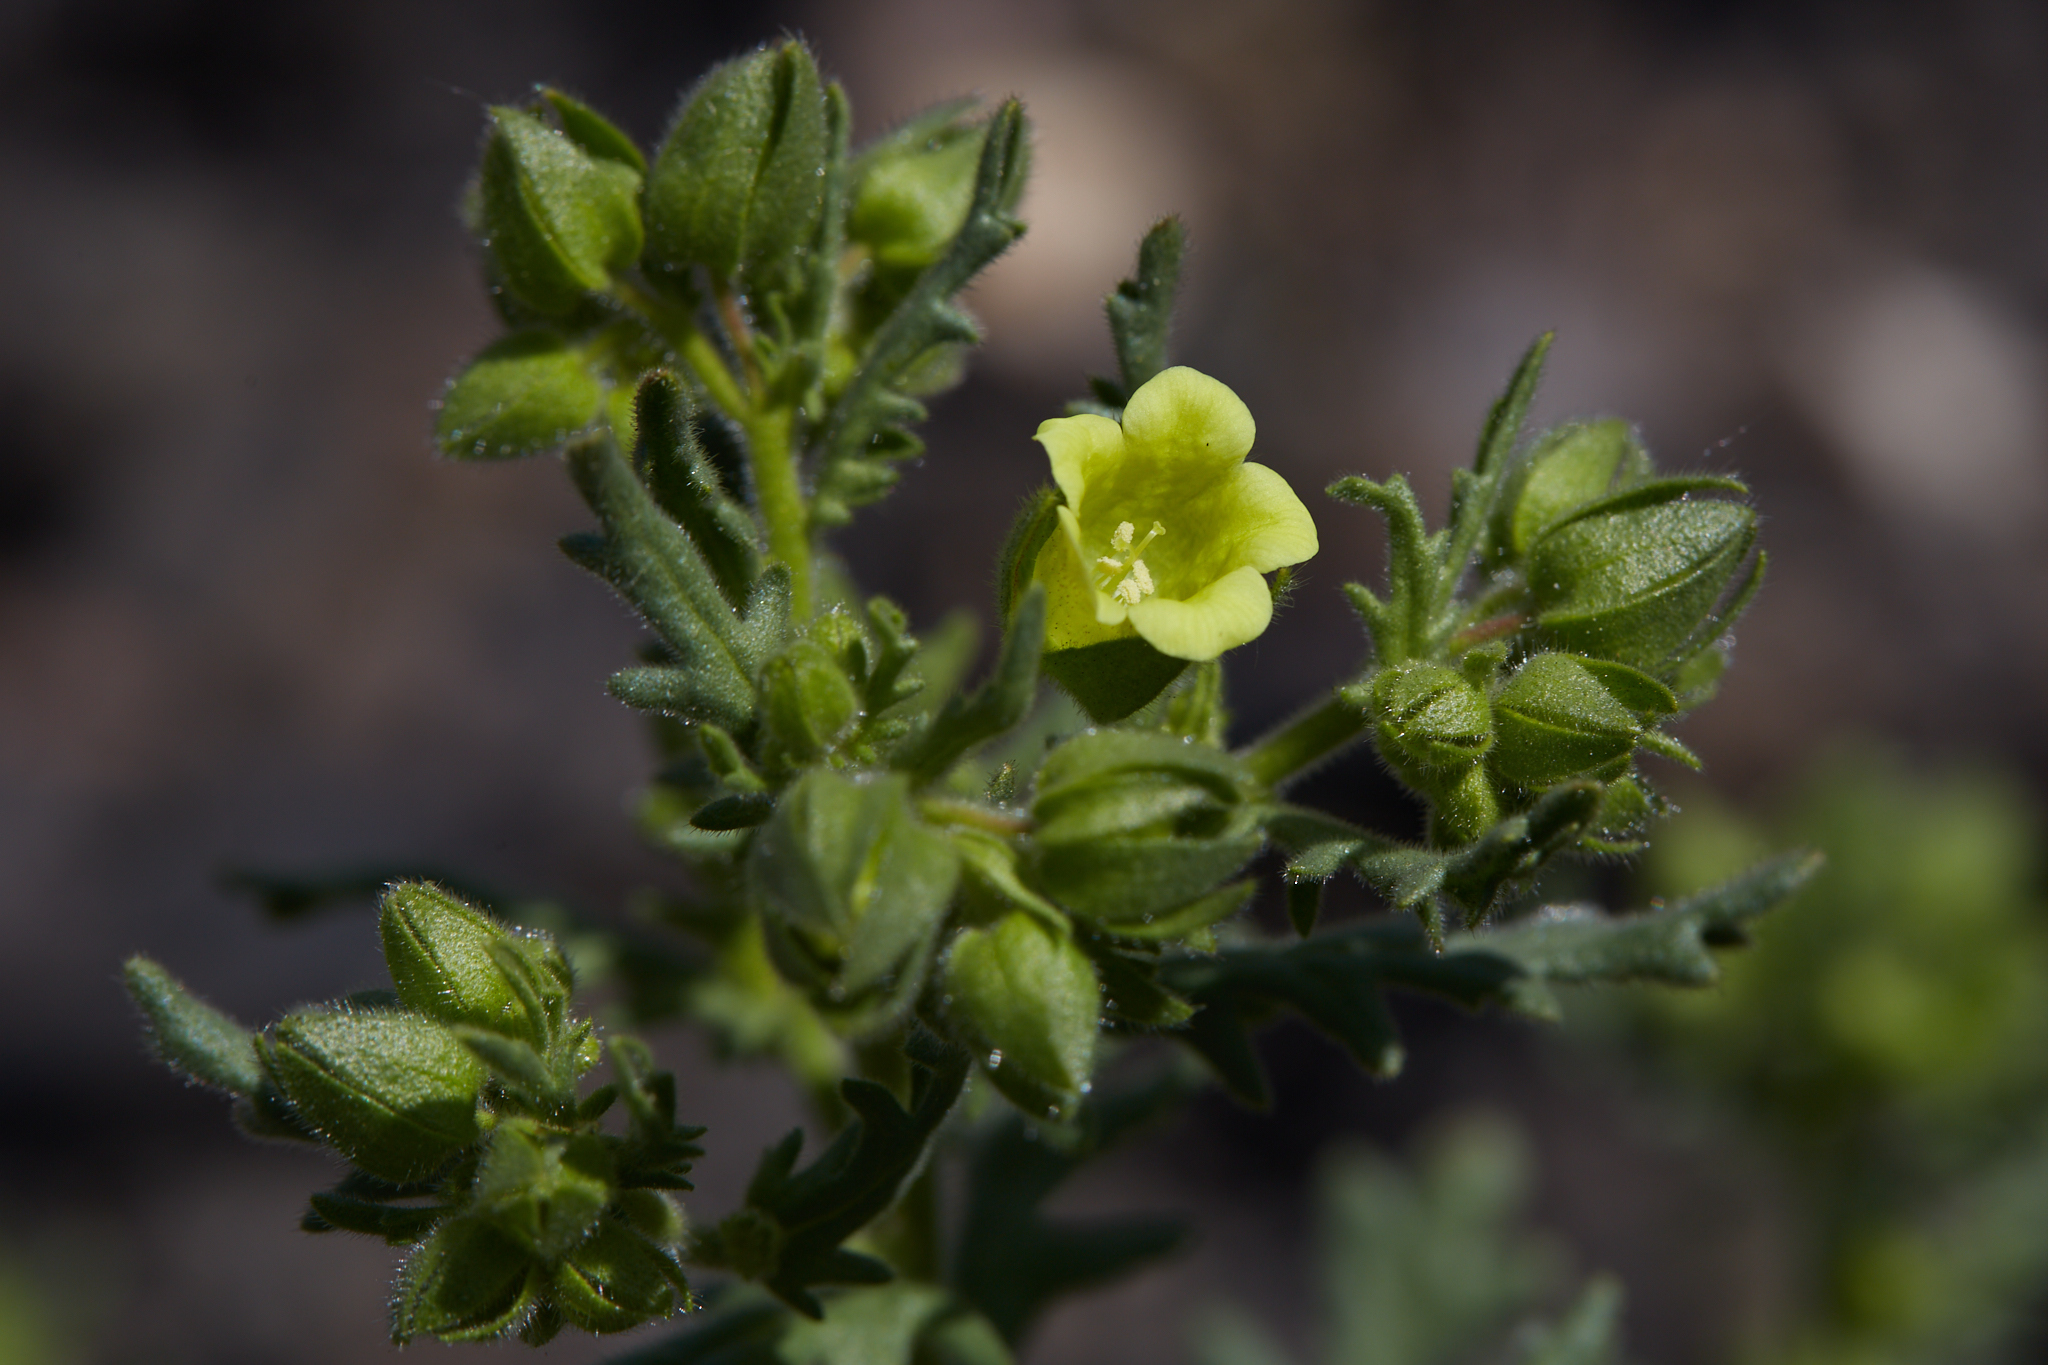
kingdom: Plantae
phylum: Tracheophyta
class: Magnoliopsida
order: Boraginales
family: Hydrophyllaceae
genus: Emmenanthe
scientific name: Emmenanthe penduliflora
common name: Whispering-bells
